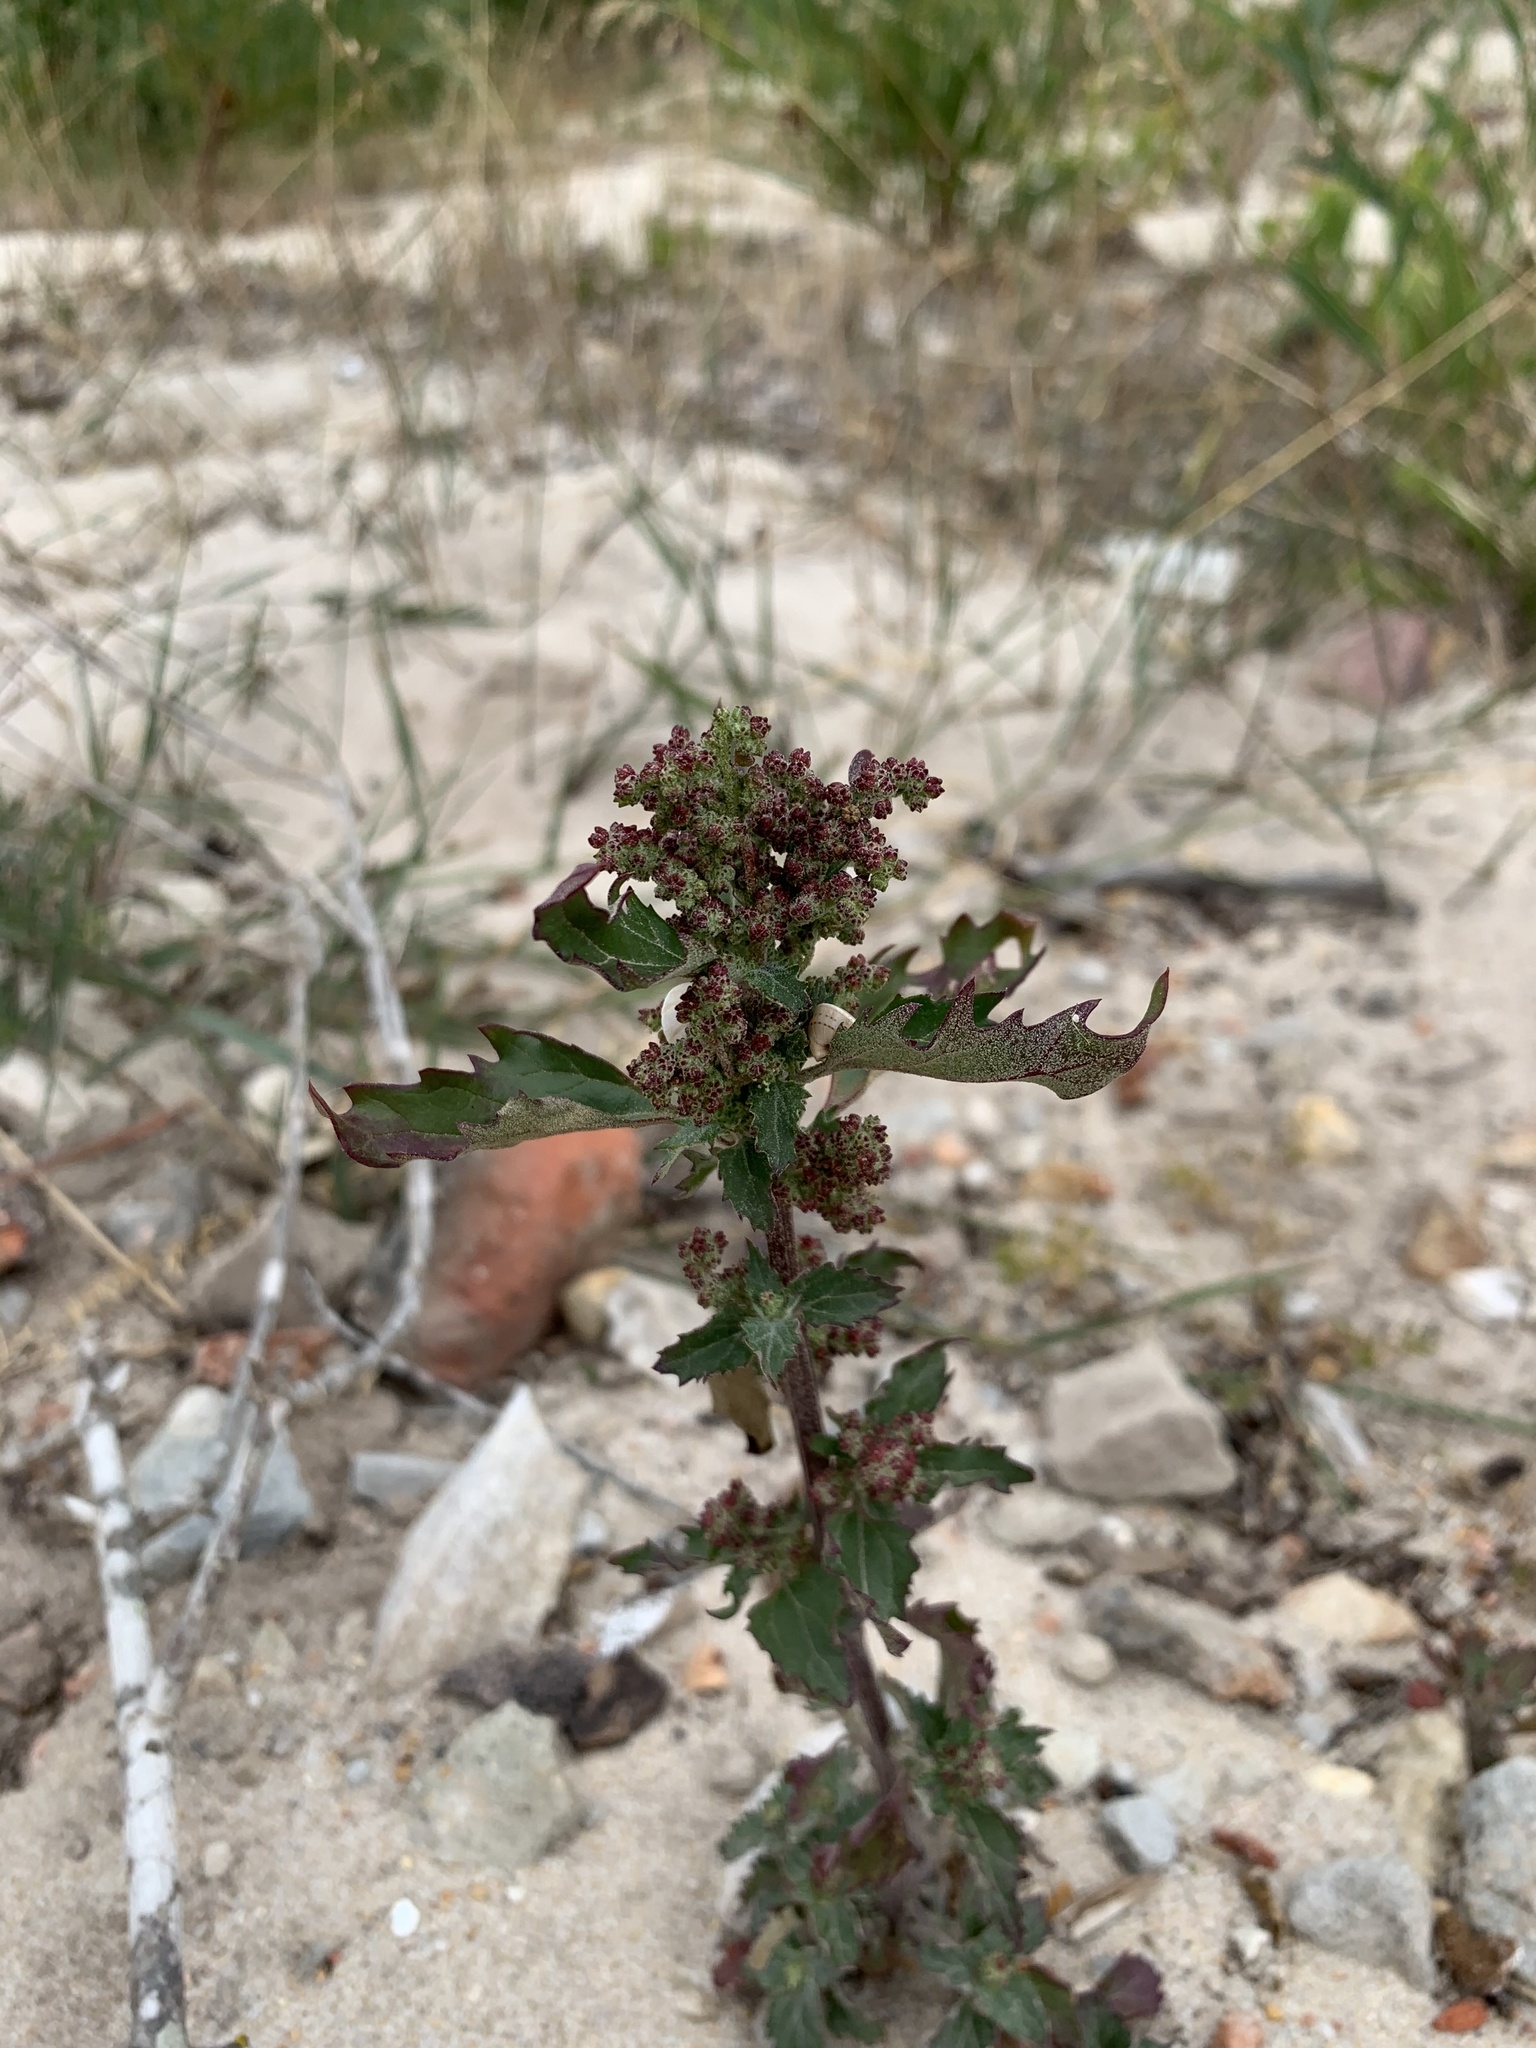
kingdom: Plantae
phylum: Tracheophyta
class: Magnoliopsida
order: Caryophyllales
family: Amaranthaceae
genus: Chenopodiastrum
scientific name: Chenopodiastrum murale
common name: Sowbane
